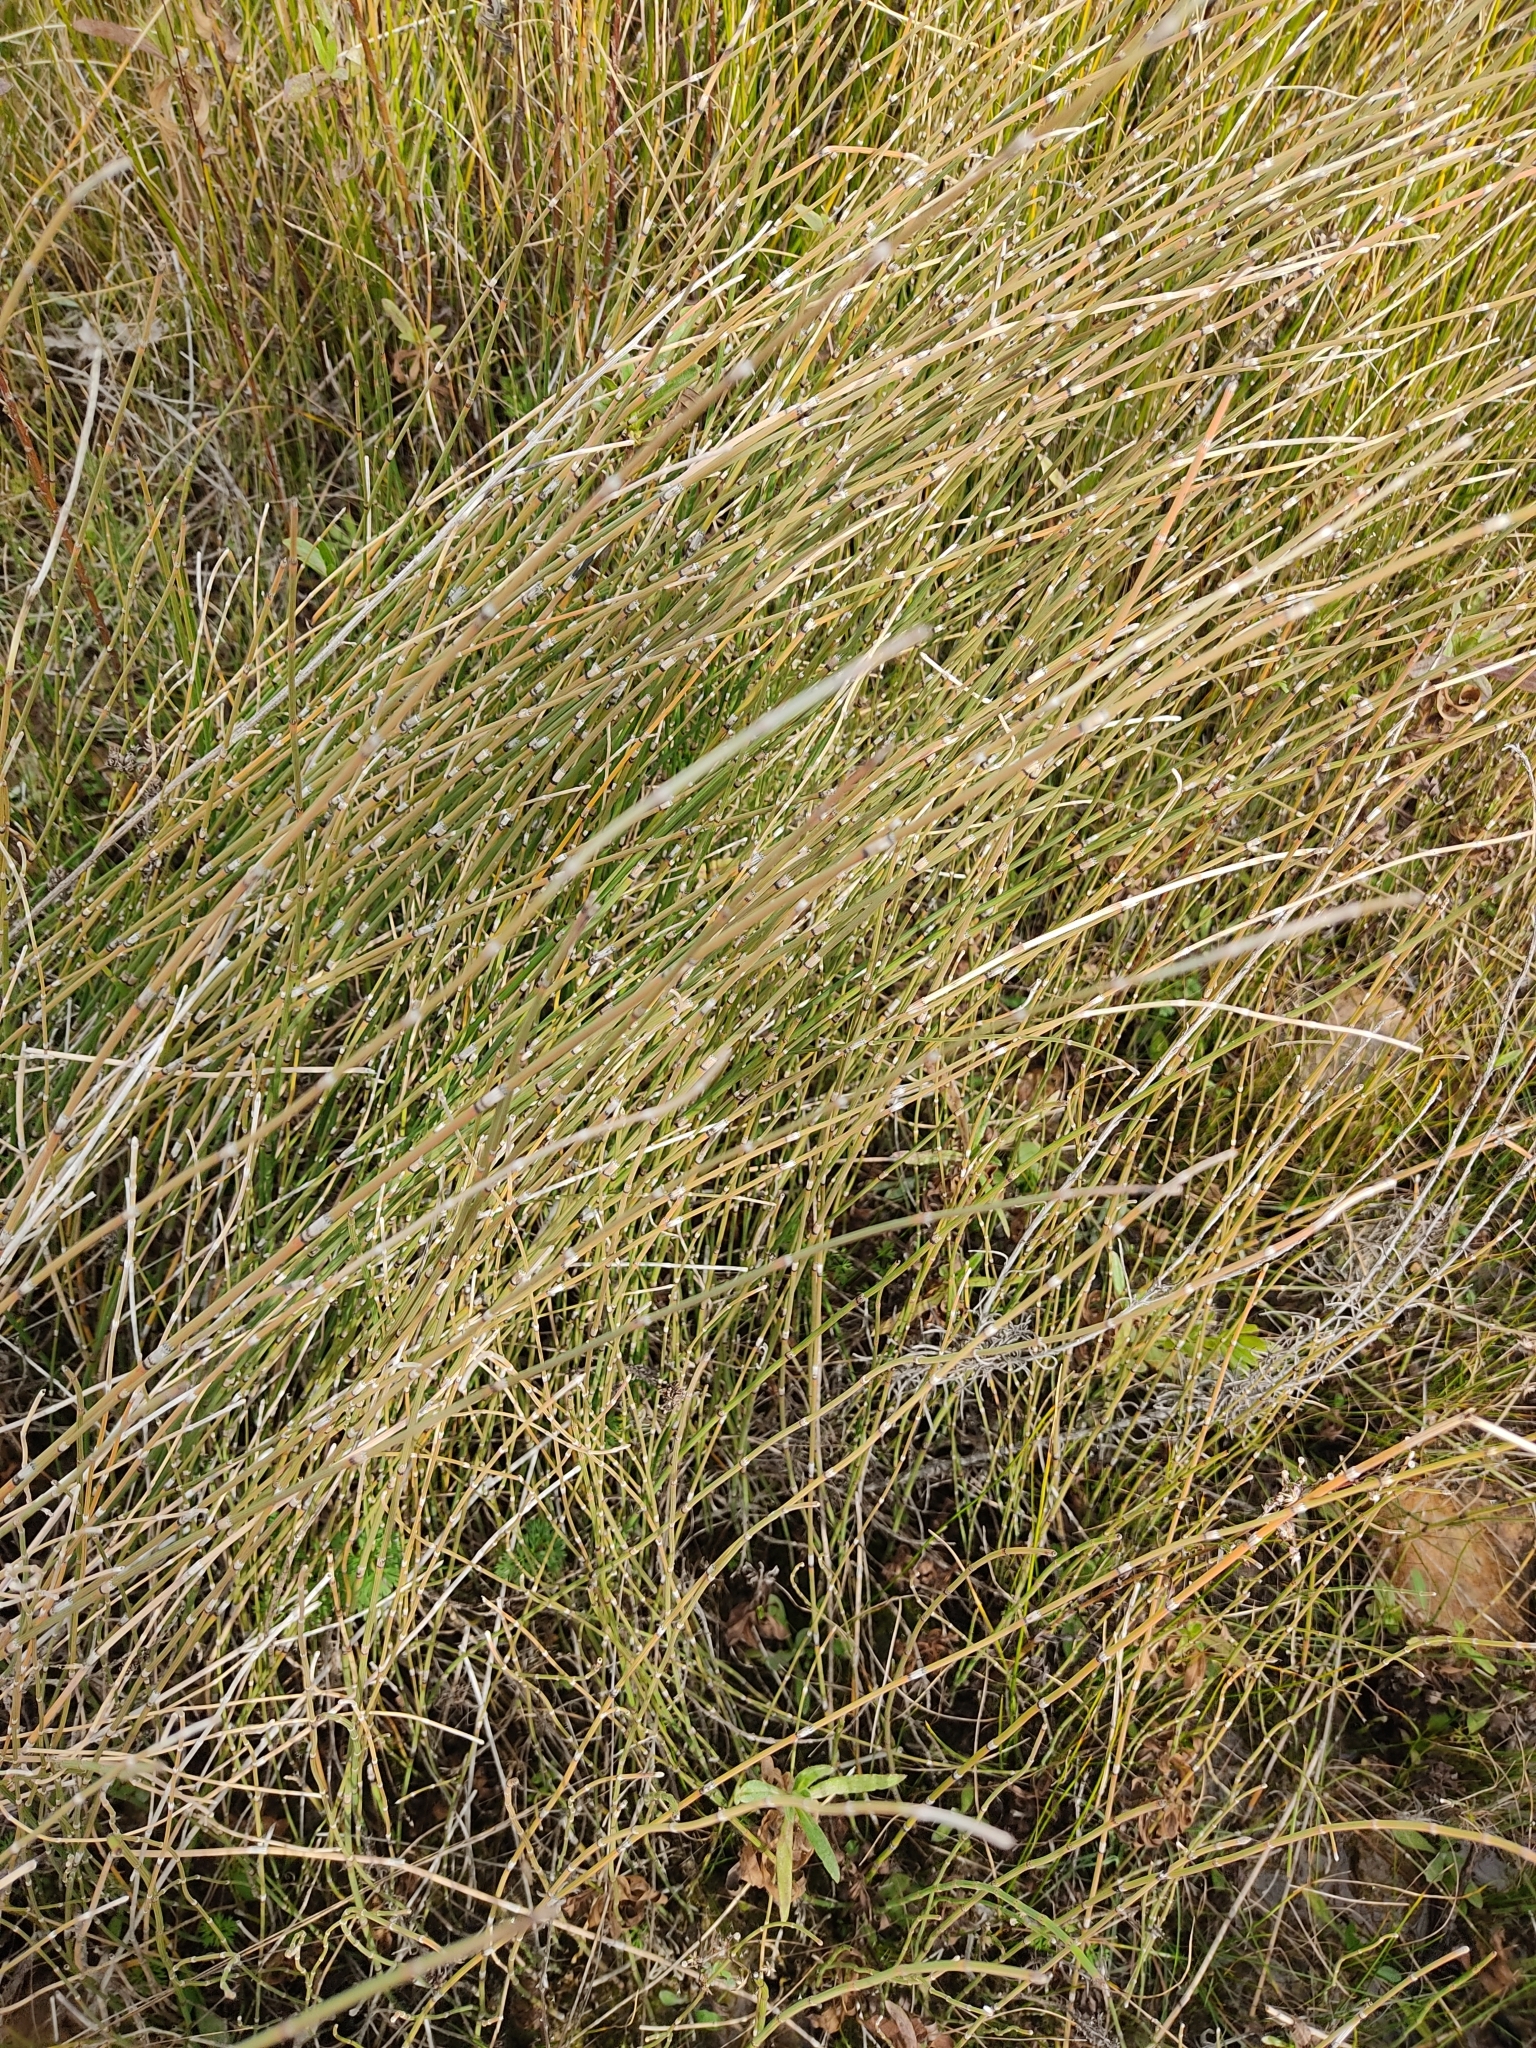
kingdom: Plantae
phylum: Tracheophyta
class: Polypodiopsida
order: Equisetales
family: Equisetaceae
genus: Equisetum
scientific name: Equisetum ramosissimum
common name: Branched horsetail
